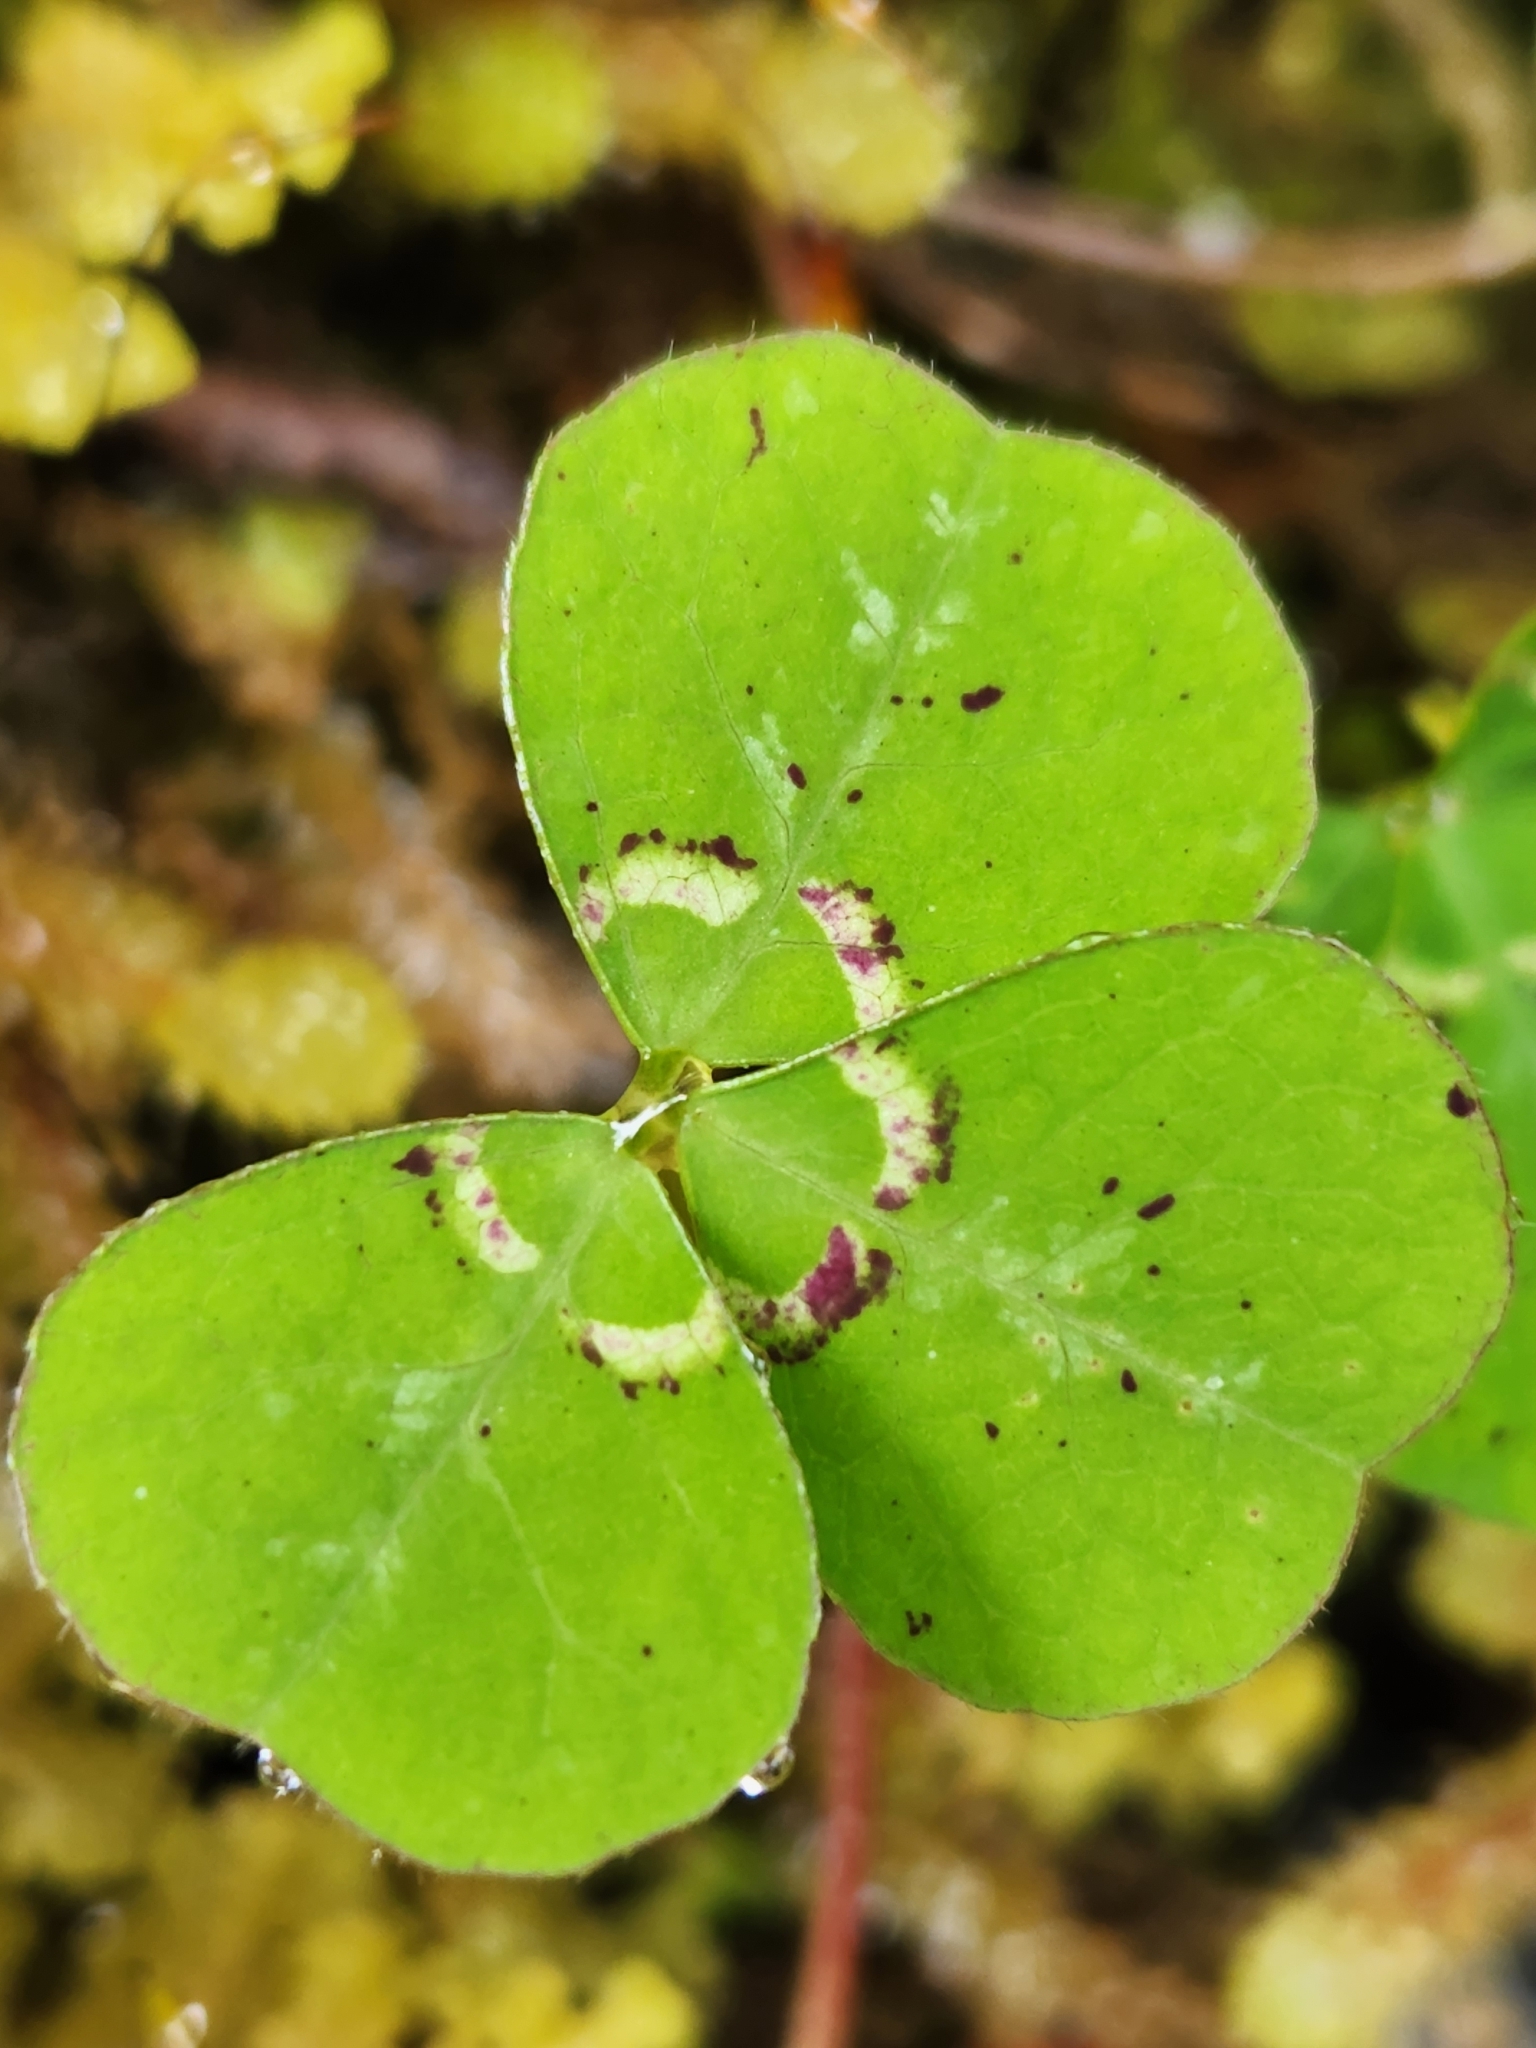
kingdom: Plantae
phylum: Tracheophyta
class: Magnoliopsida
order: Fabales
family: Fabaceae
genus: Parochetus
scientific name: Parochetus communis
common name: Blue oxalis
